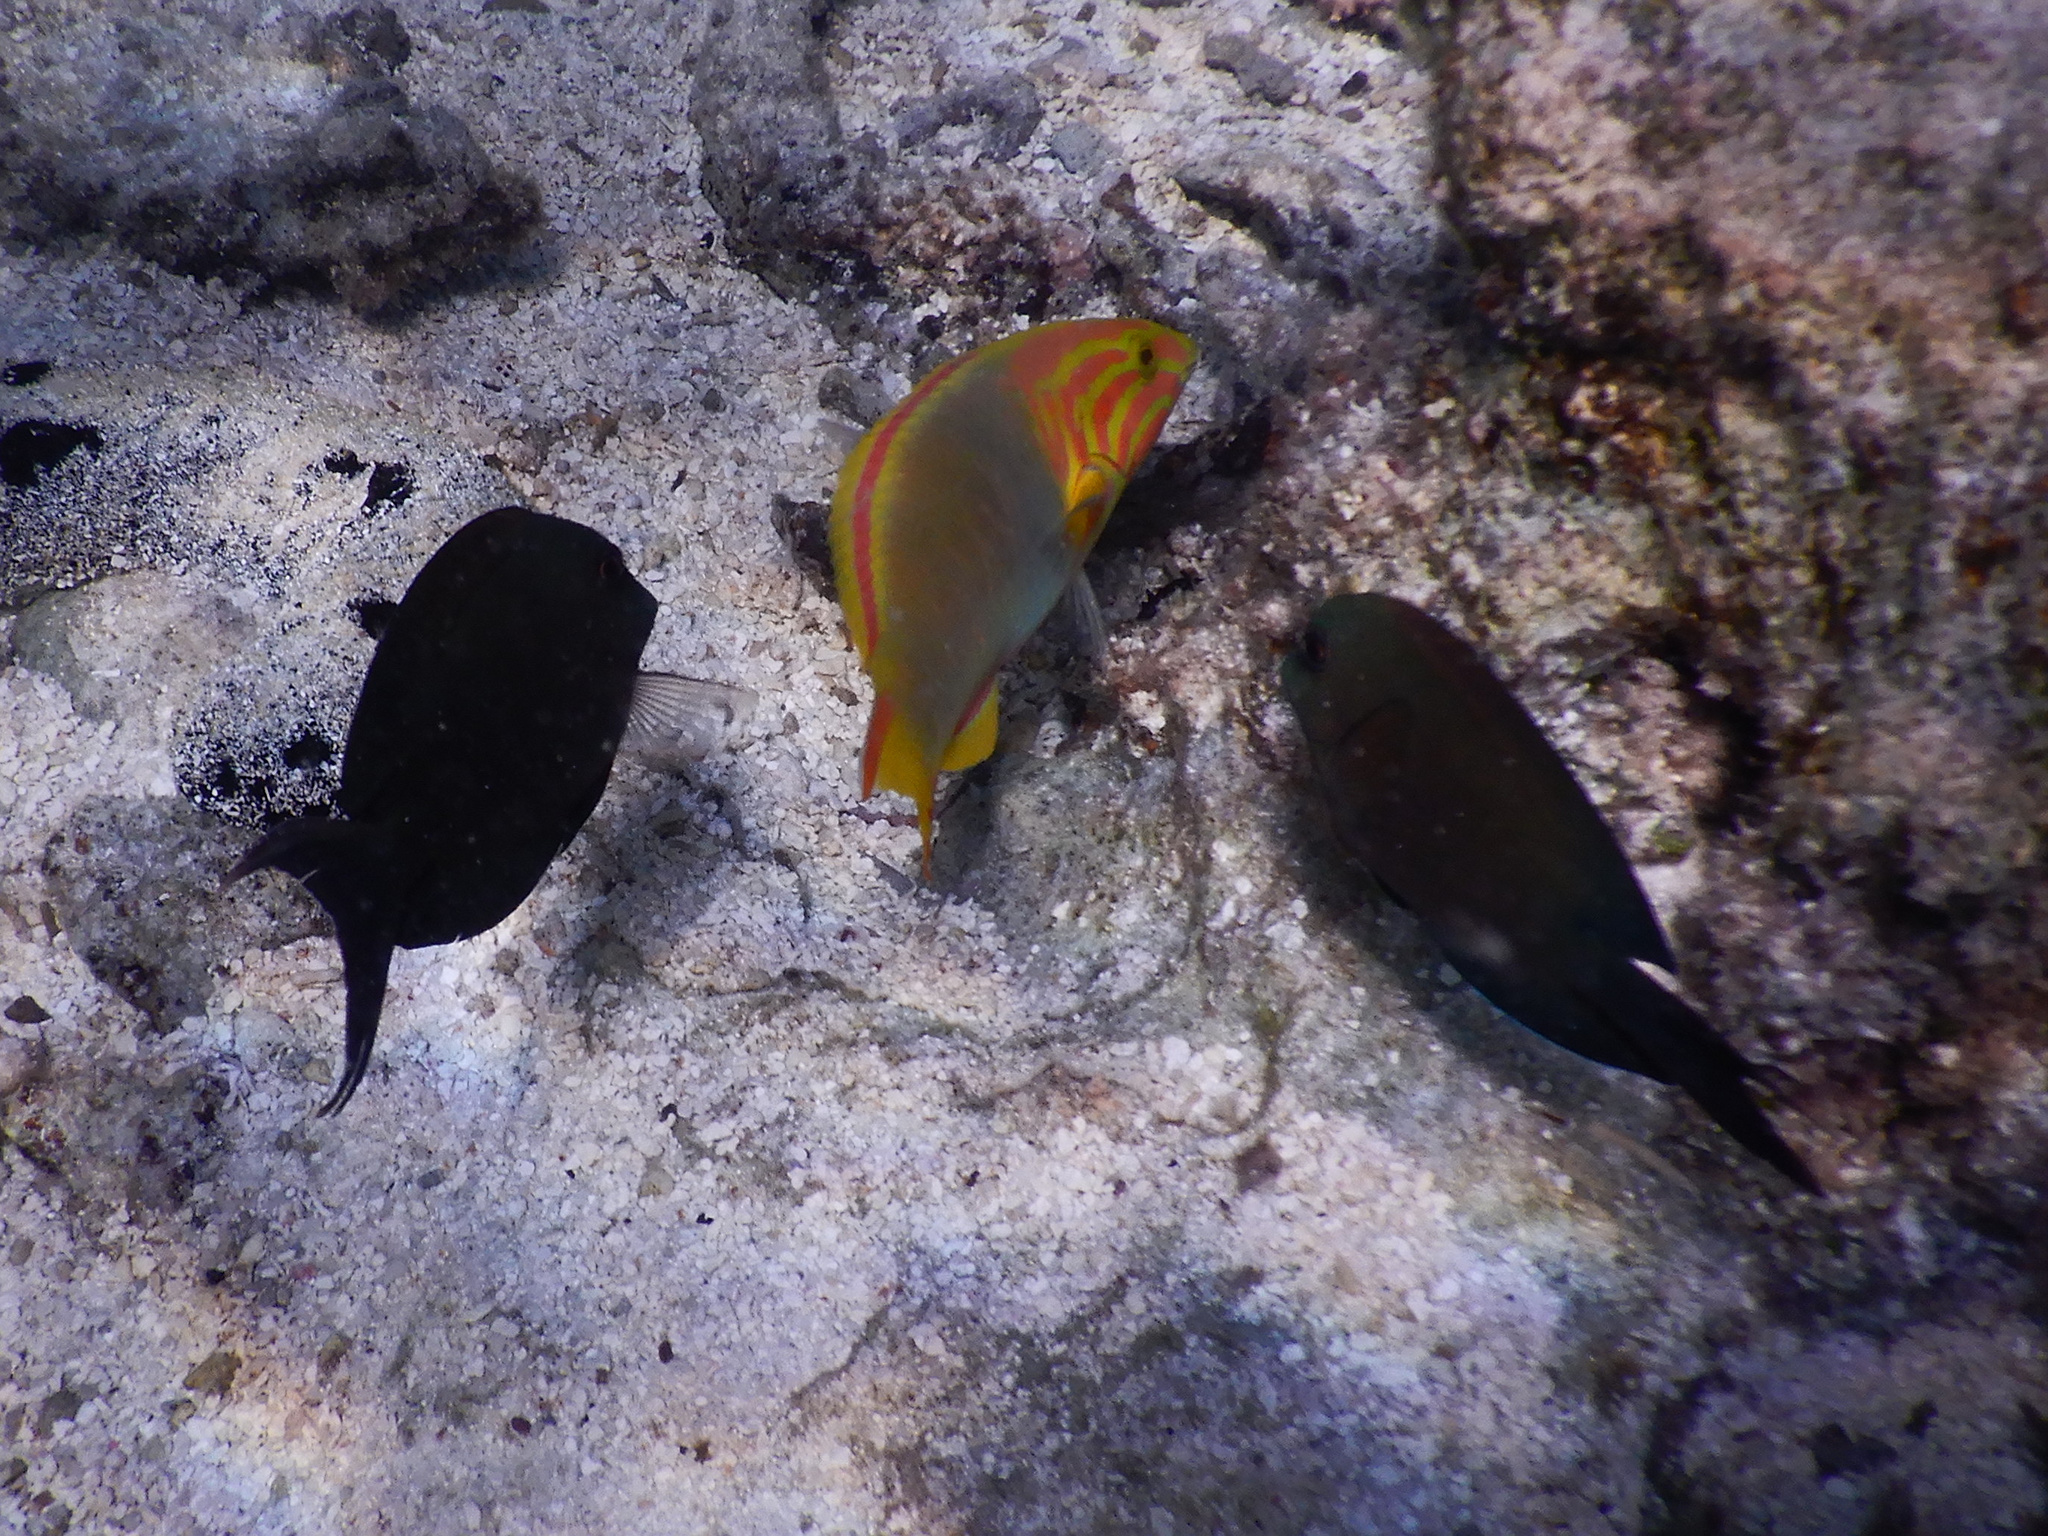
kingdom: Animalia
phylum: Chordata
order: Perciformes
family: Acanthuridae
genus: Acanthurus
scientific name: Acanthurus nigrofuscus
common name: Blackspot surgeonfish
